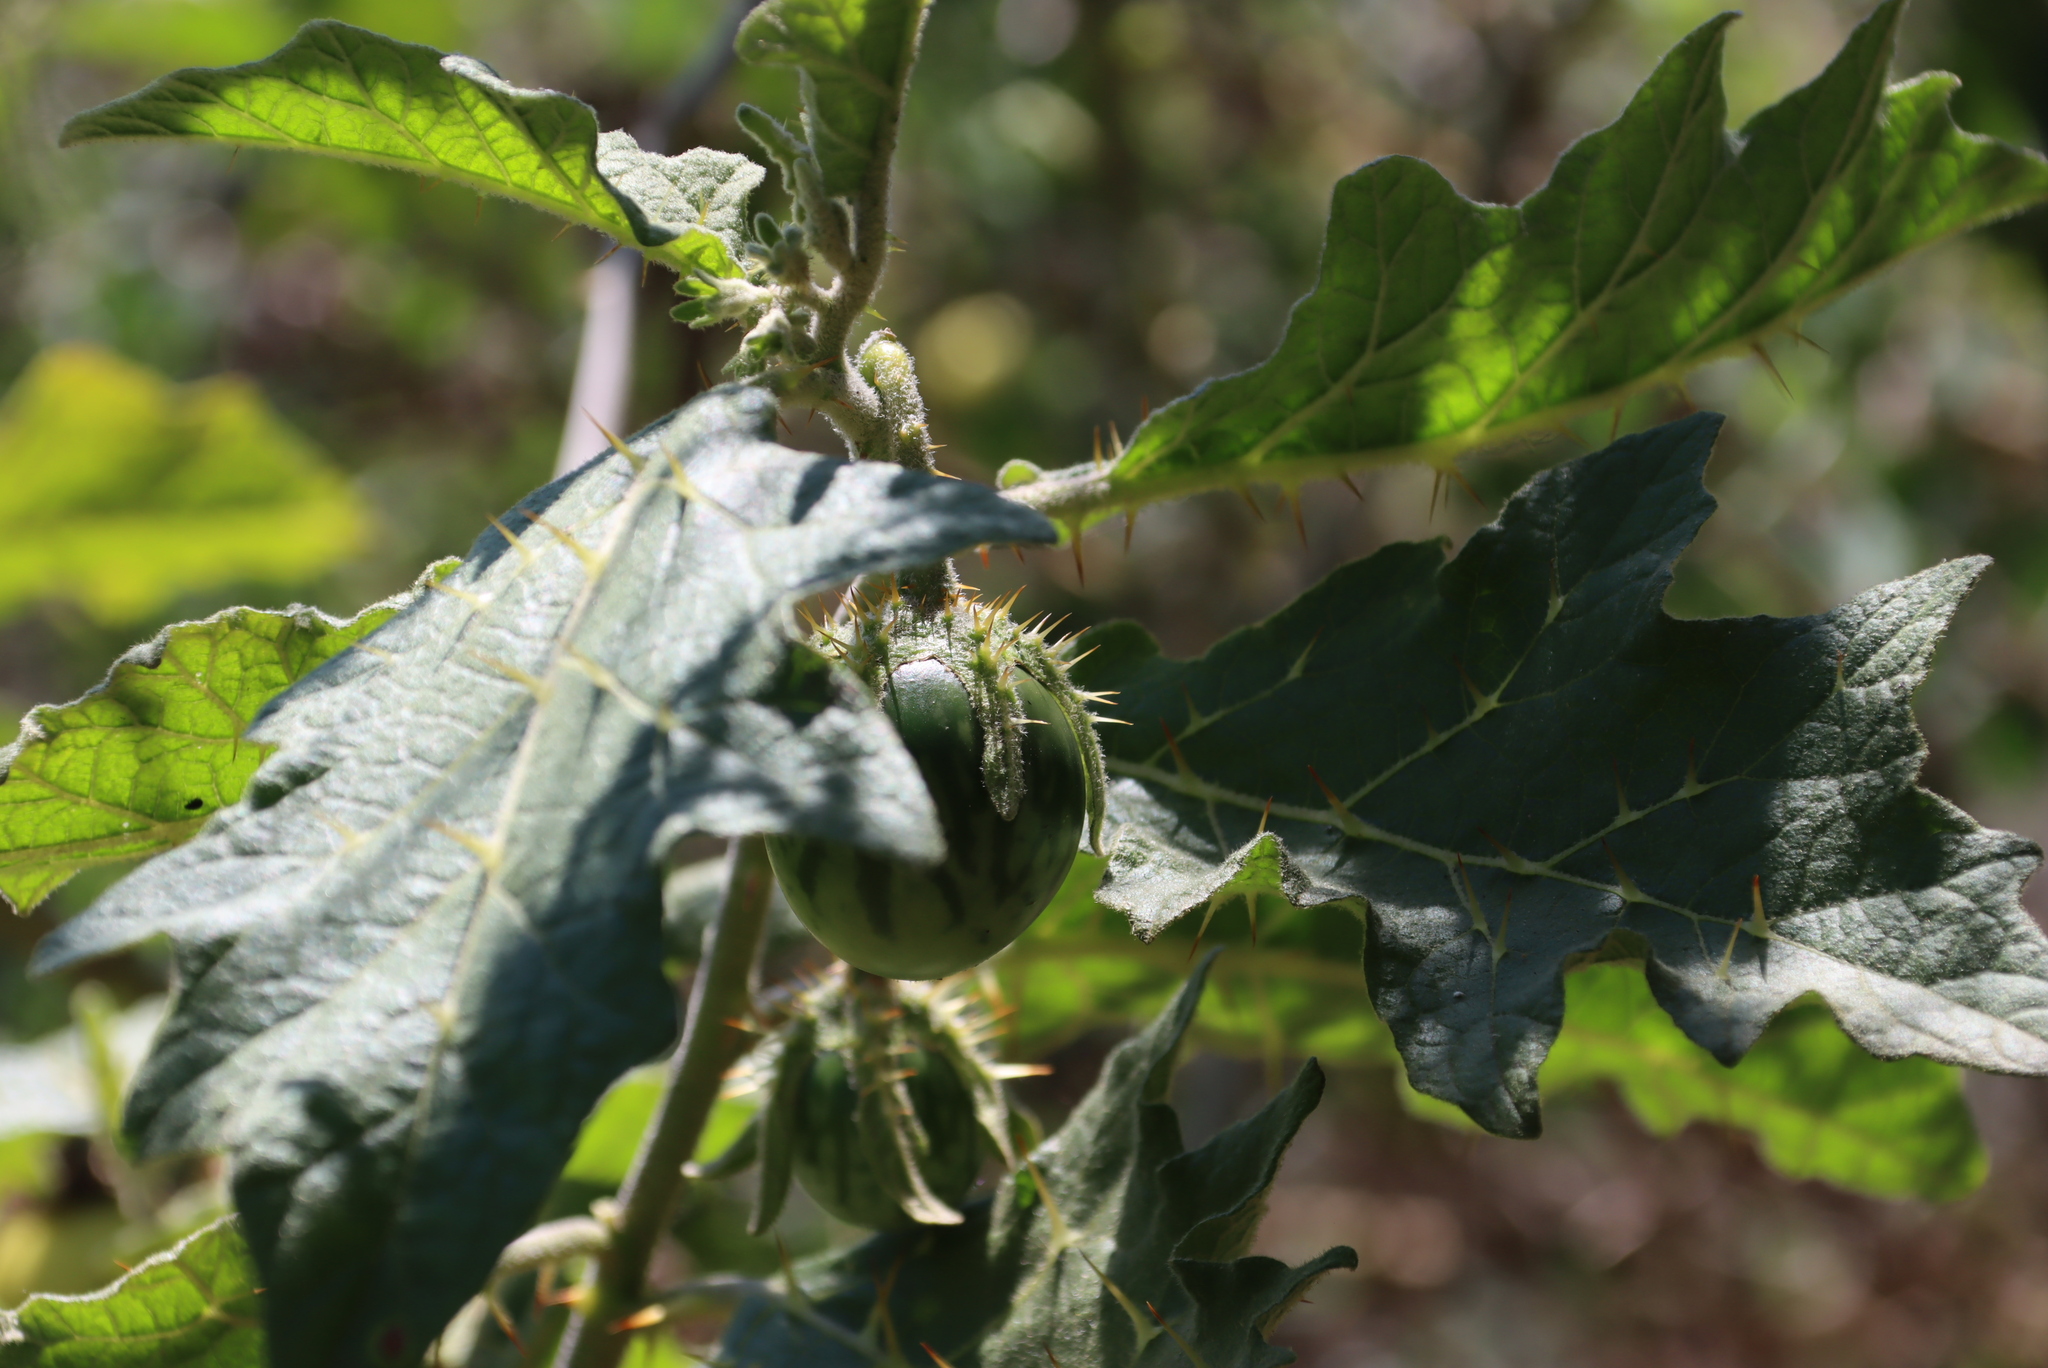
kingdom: Plantae
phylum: Tracheophyta
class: Magnoliopsida
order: Solanales
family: Solanaceae
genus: Solanum
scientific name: Solanum umtuma
